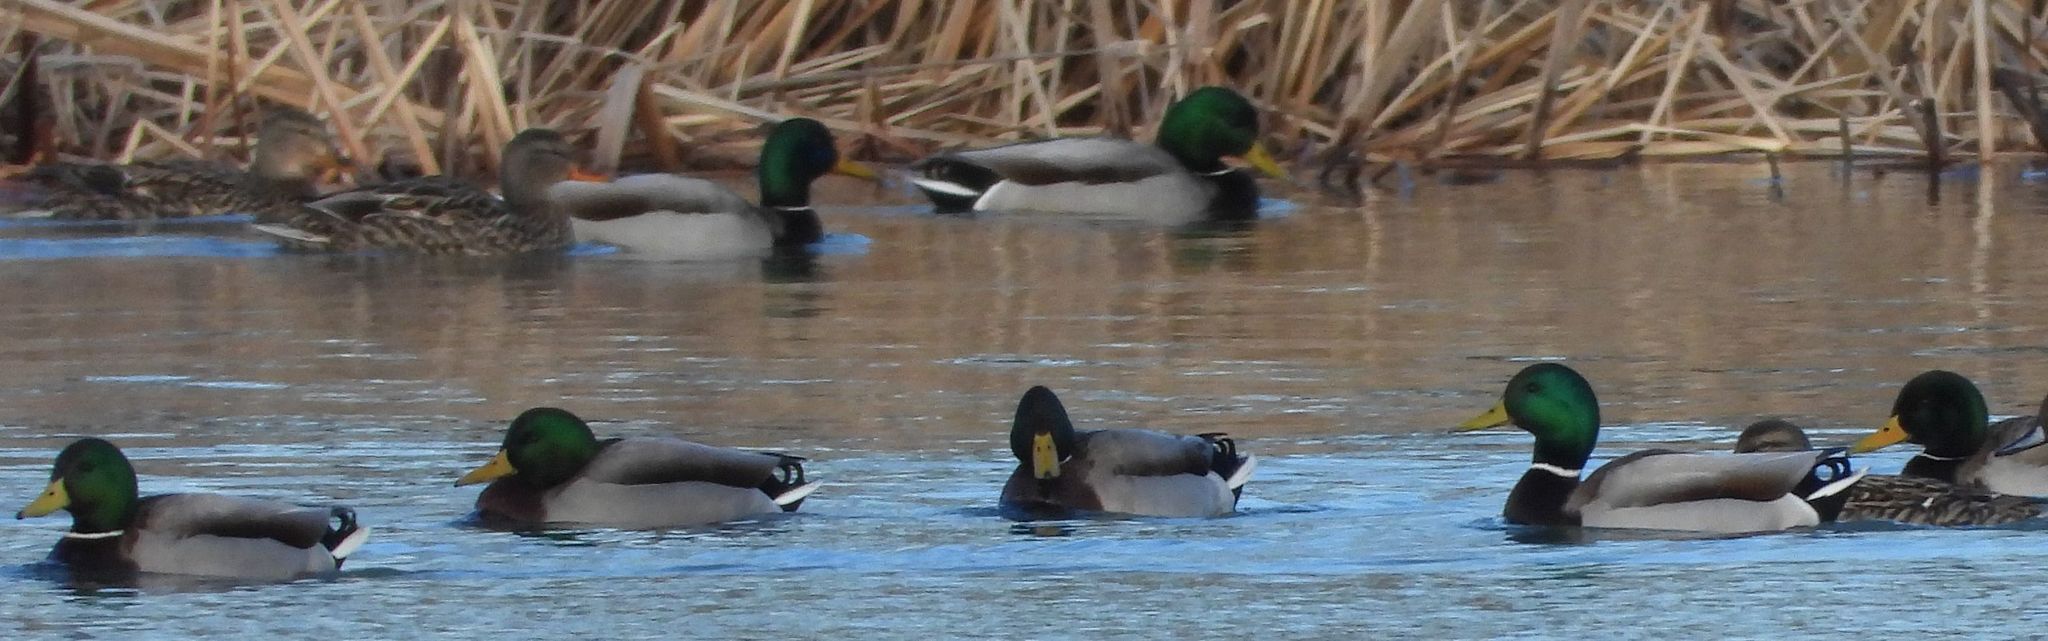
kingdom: Animalia
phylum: Chordata
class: Aves
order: Anseriformes
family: Anatidae
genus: Anas
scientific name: Anas platyrhynchos
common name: Mallard
